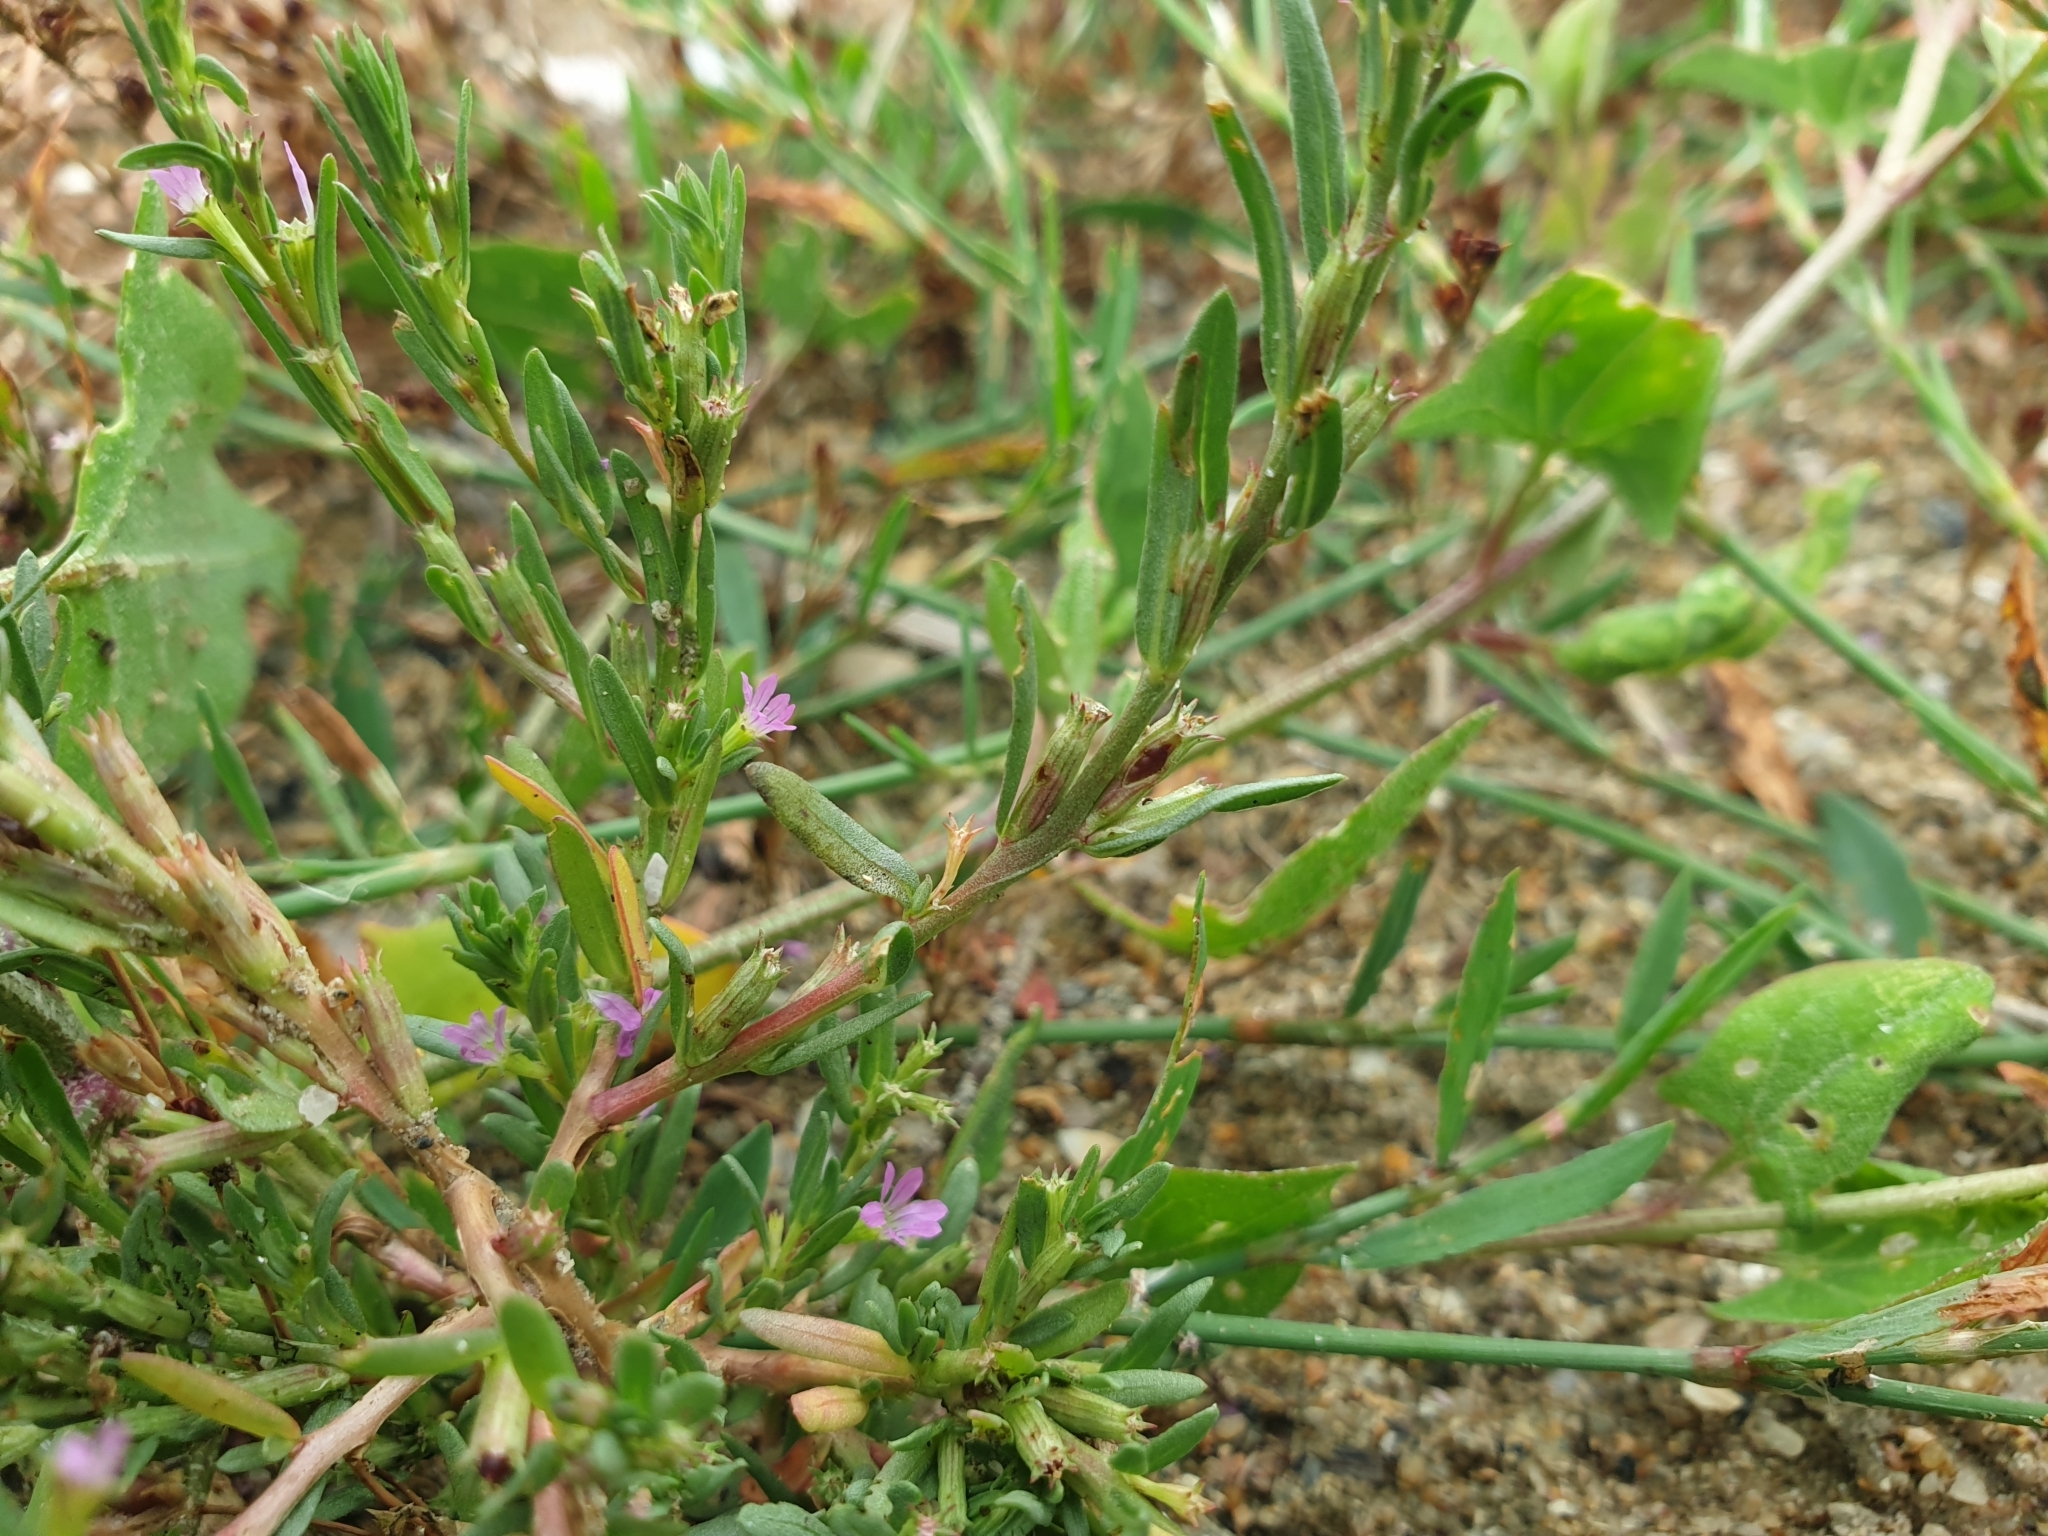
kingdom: Plantae
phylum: Tracheophyta
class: Magnoliopsida
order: Myrtales
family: Lythraceae
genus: Lythrum
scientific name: Lythrum hyssopifolia
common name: Grass-poly
